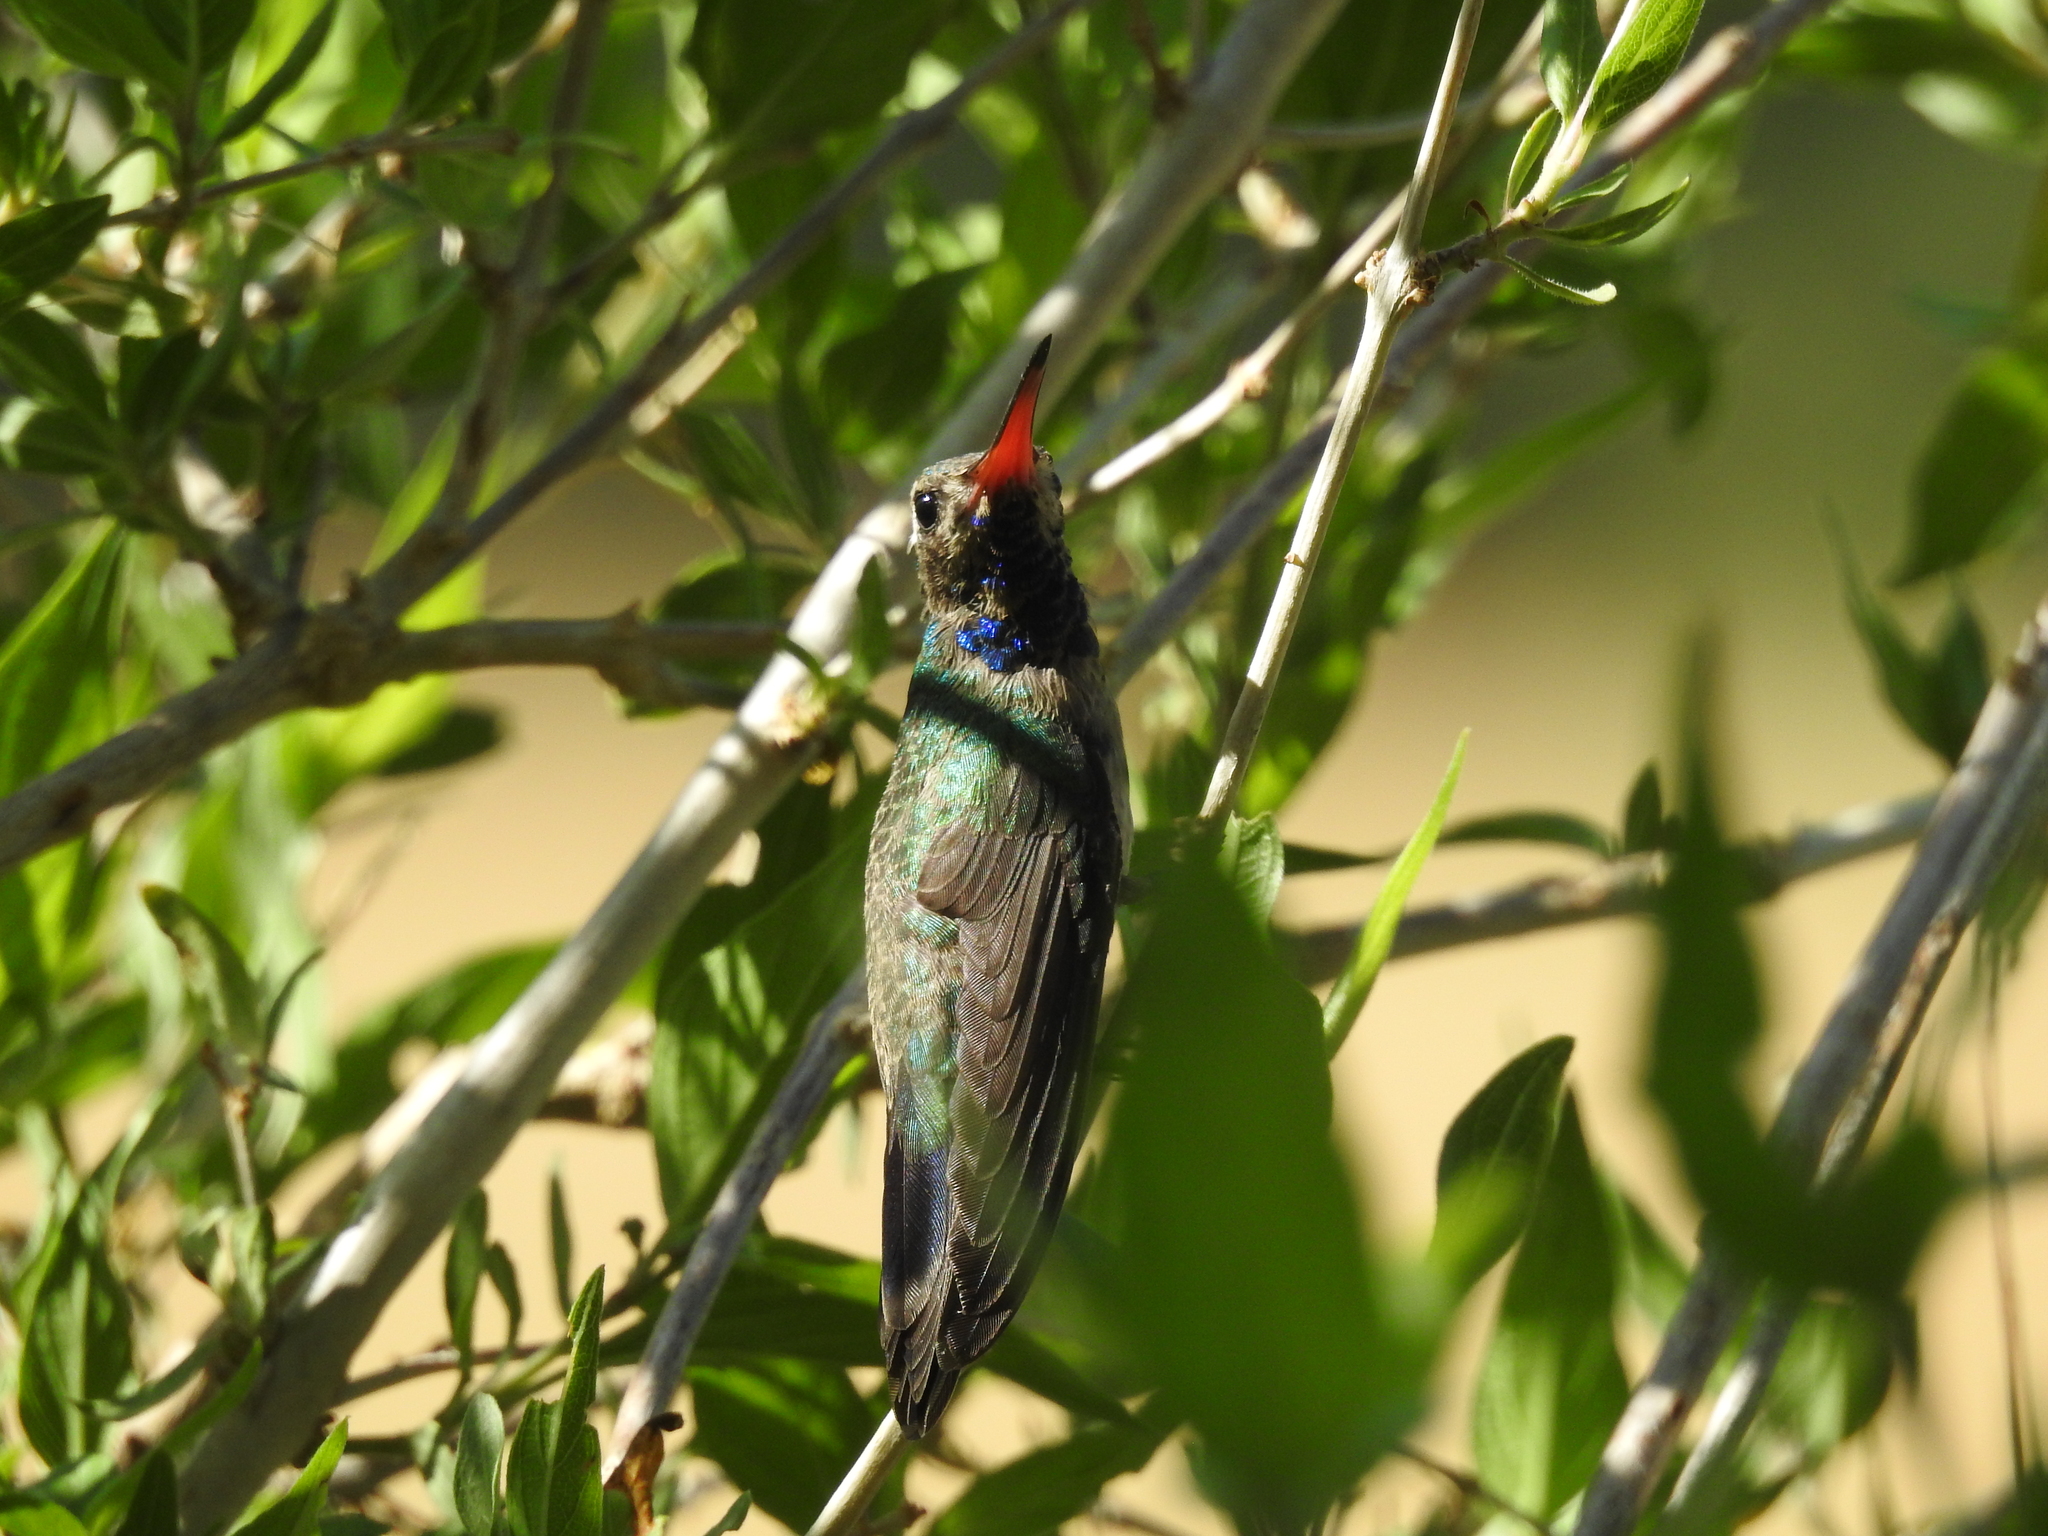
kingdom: Animalia
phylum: Chordata
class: Aves
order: Apodiformes
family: Trochilidae
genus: Cynanthus
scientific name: Cynanthus latirostris
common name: Broad-billed hummingbird
